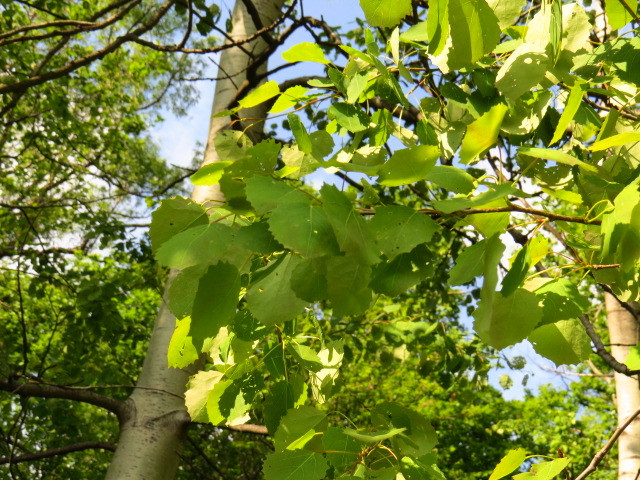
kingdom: Plantae
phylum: Tracheophyta
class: Magnoliopsida
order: Malpighiales
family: Salicaceae
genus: Populus
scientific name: Populus tremula
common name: European aspen
